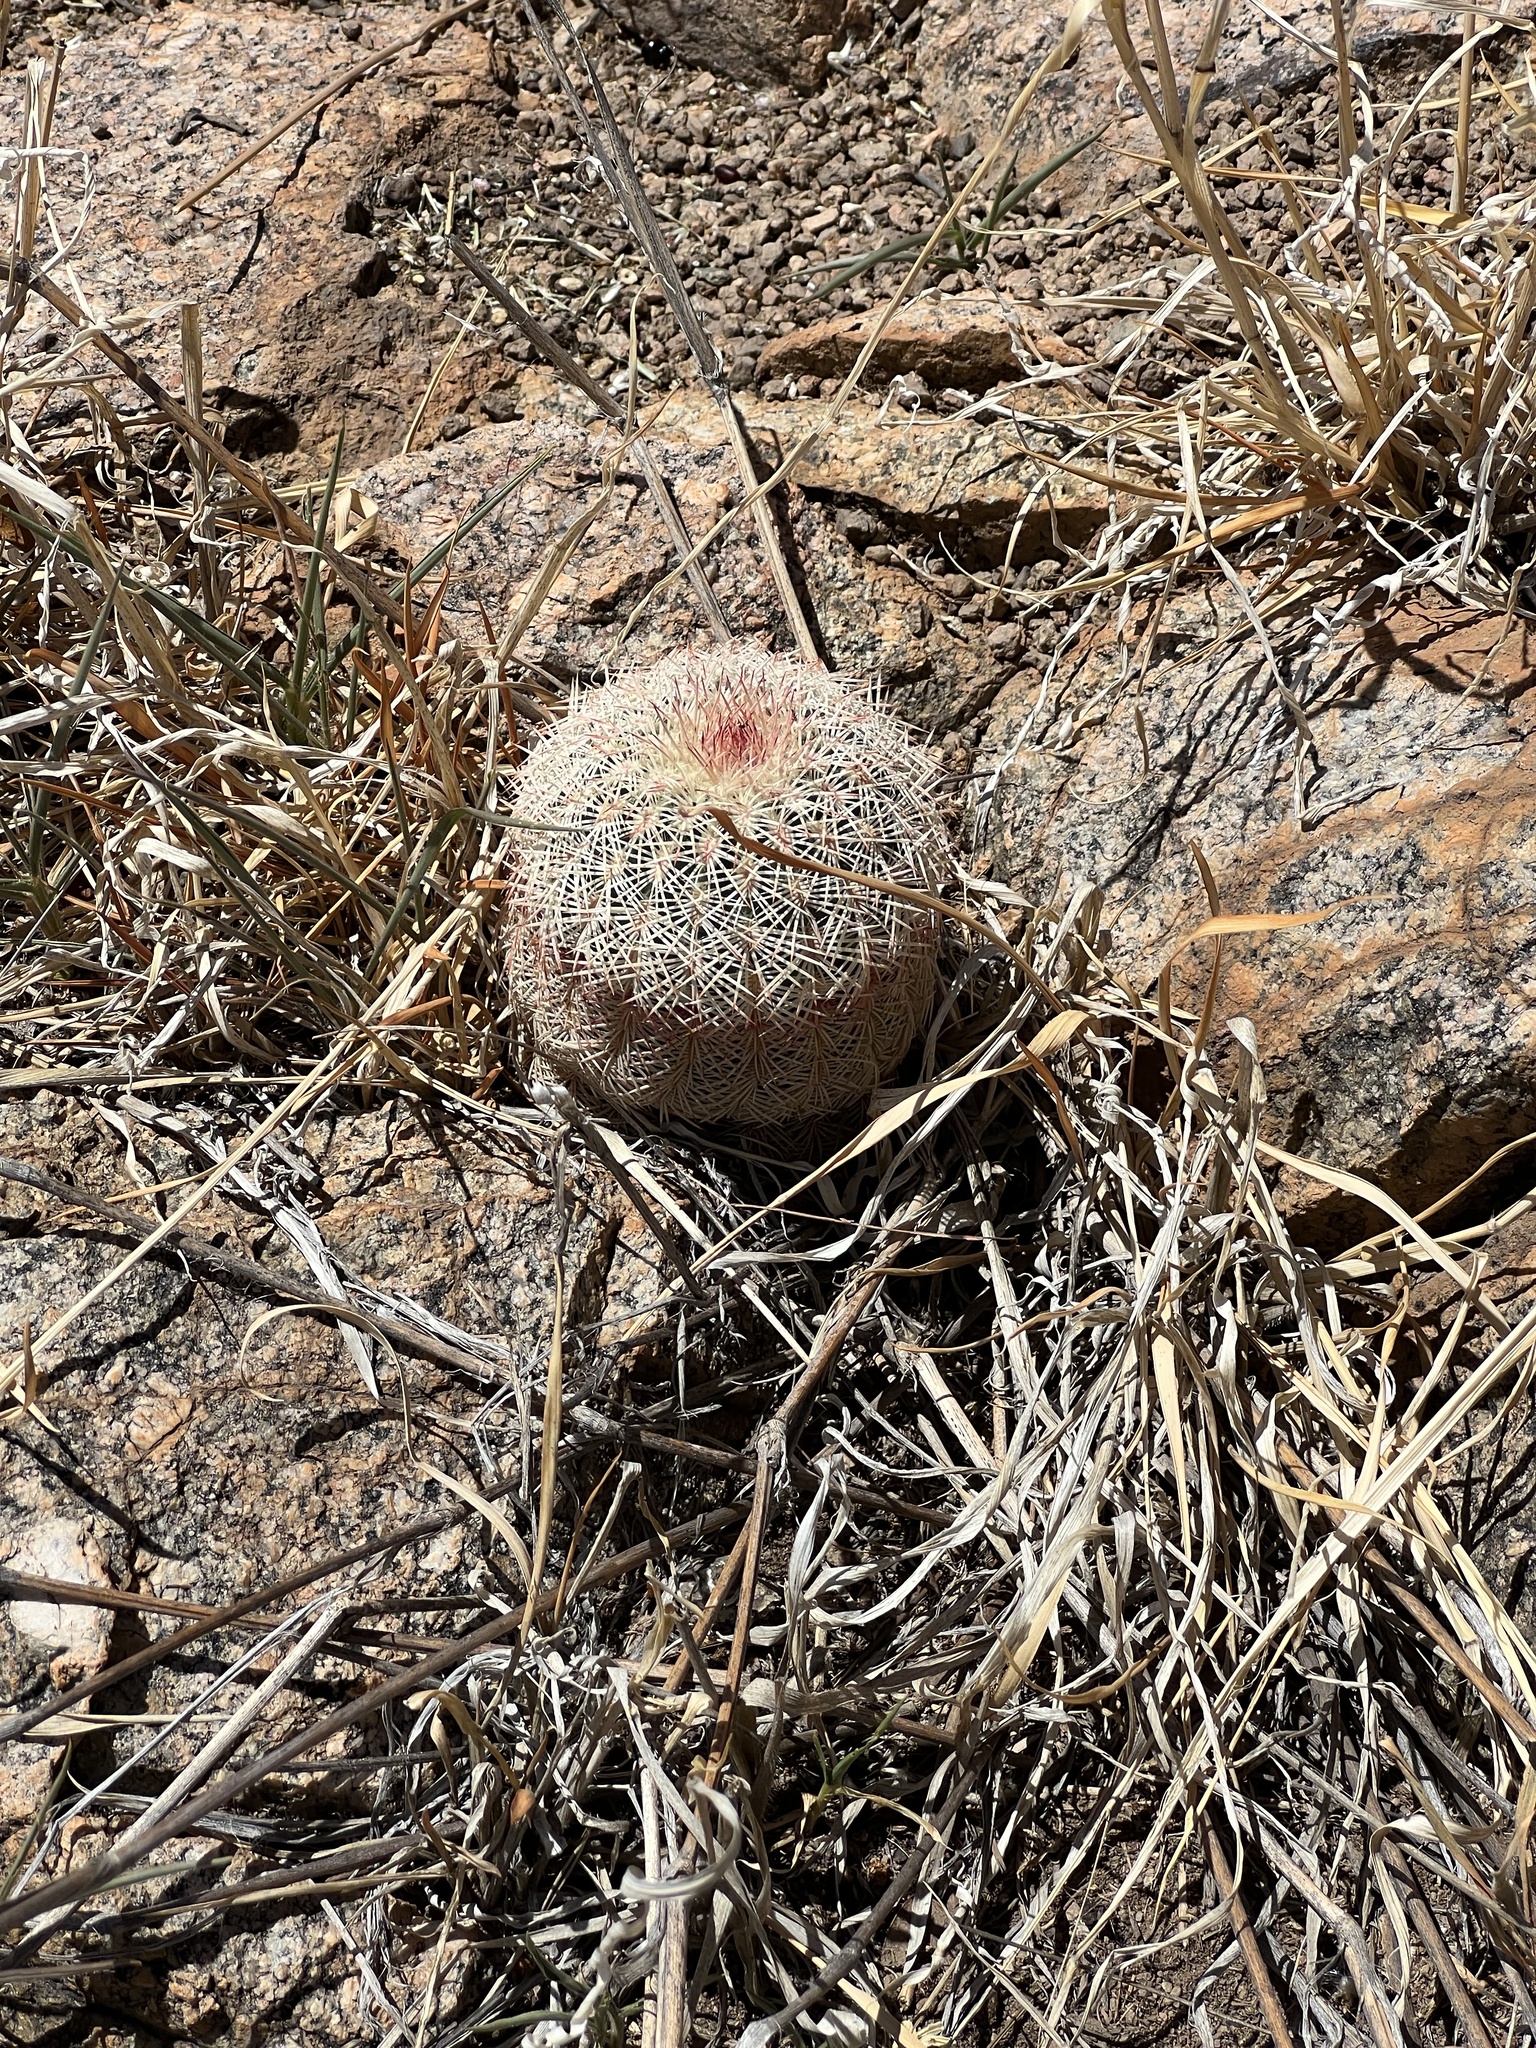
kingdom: Plantae
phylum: Tracheophyta
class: Magnoliopsida
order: Caryophyllales
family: Cactaceae
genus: Echinocereus
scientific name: Echinocereus rigidissimus
